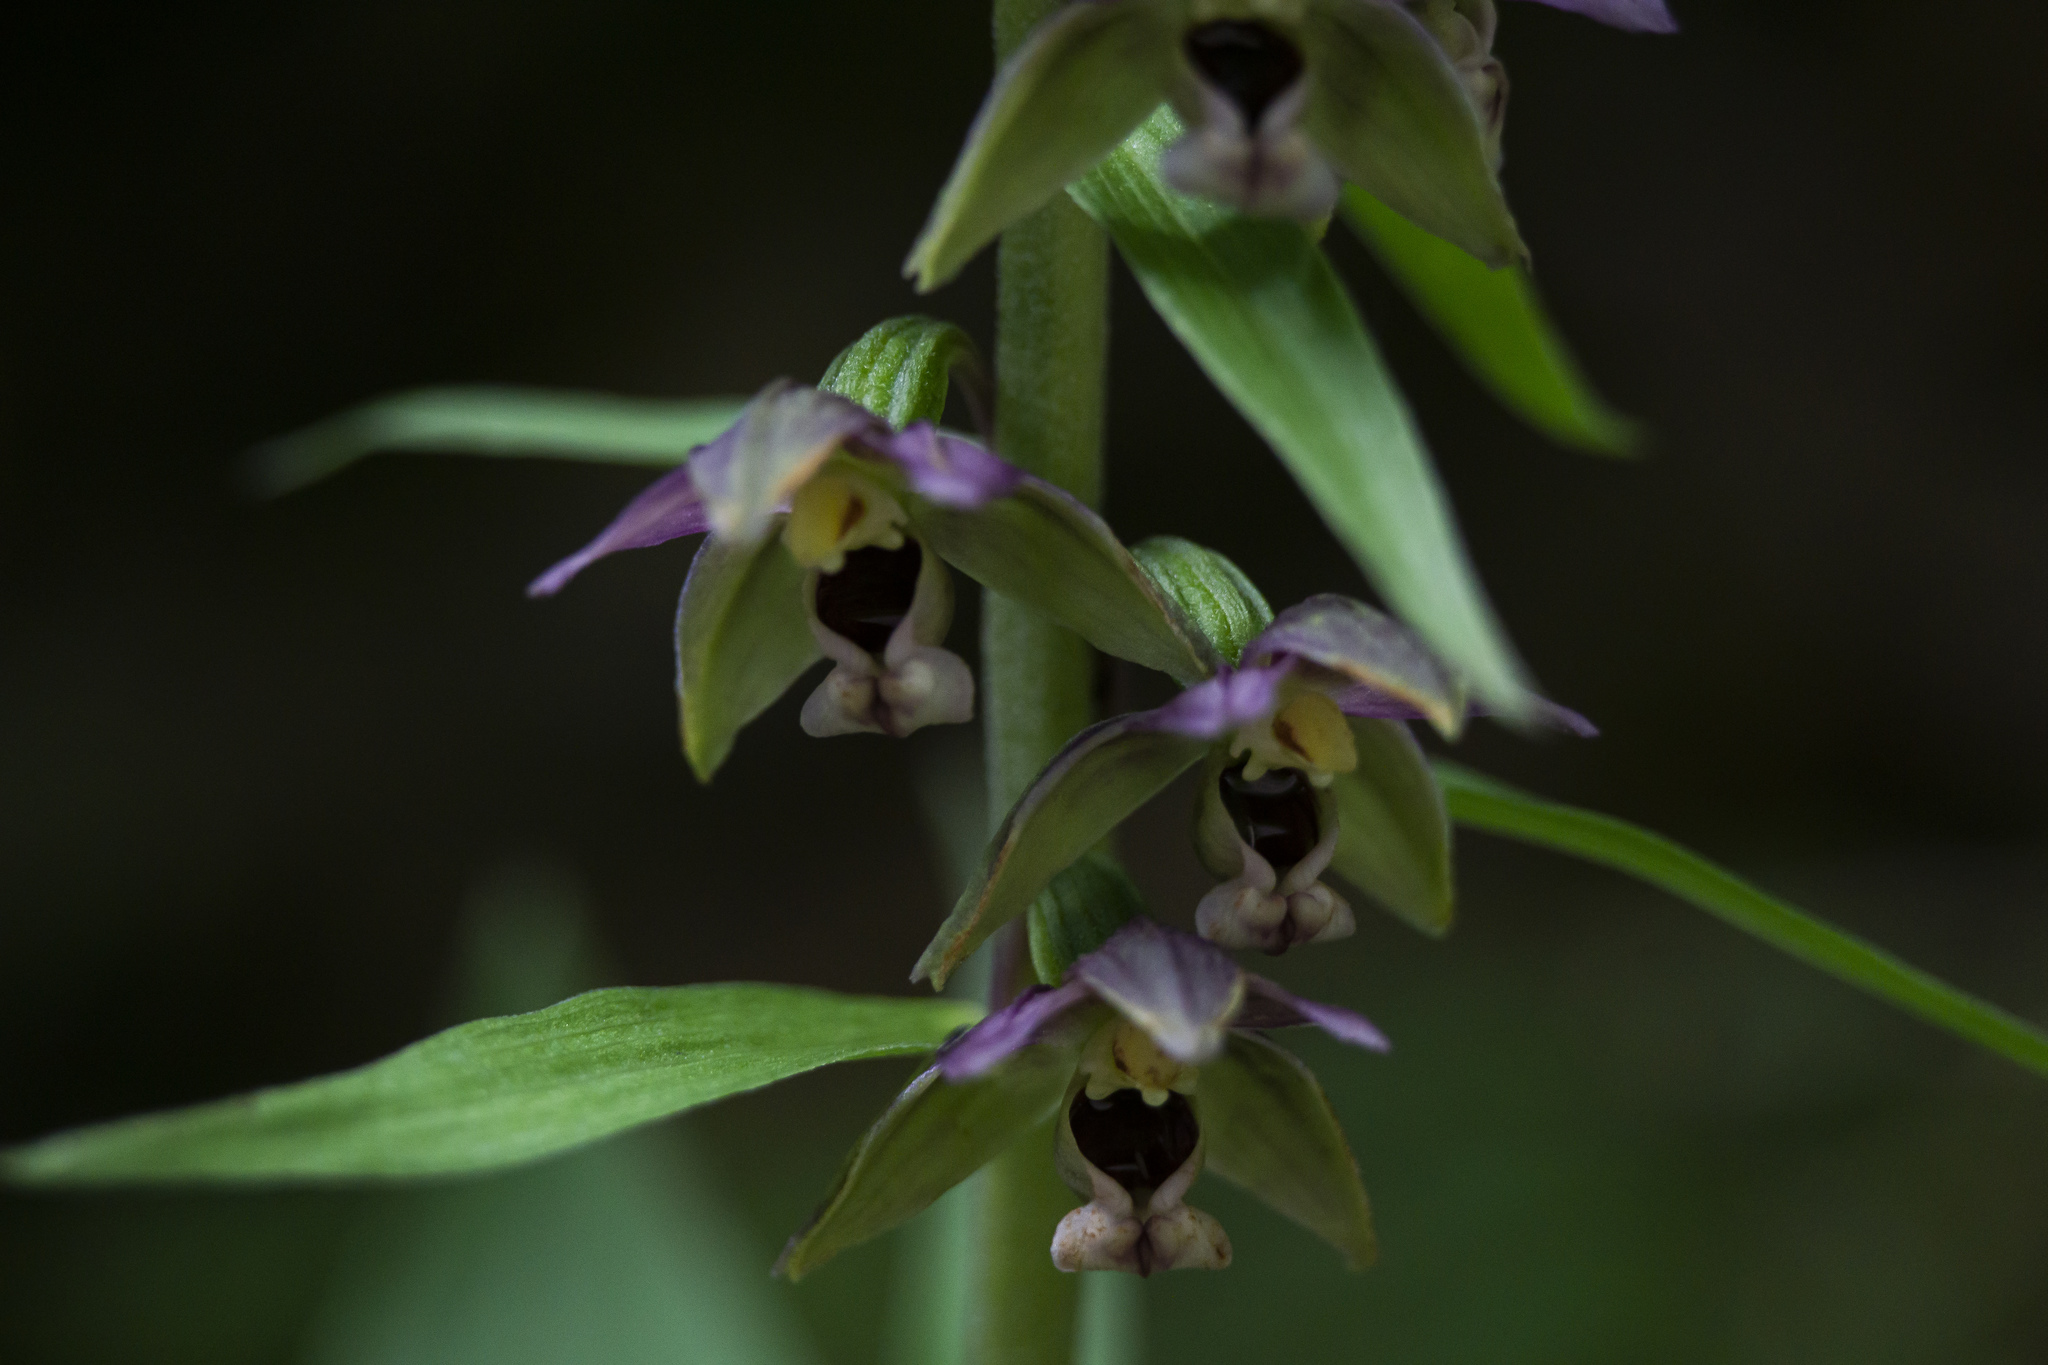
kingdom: Plantae
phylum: Tracheophyta
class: Liliopsida
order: Asparagales
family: Orchidaceae
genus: Epipactis
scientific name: Epipactis helleborine
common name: Broad-leaved helleborine
